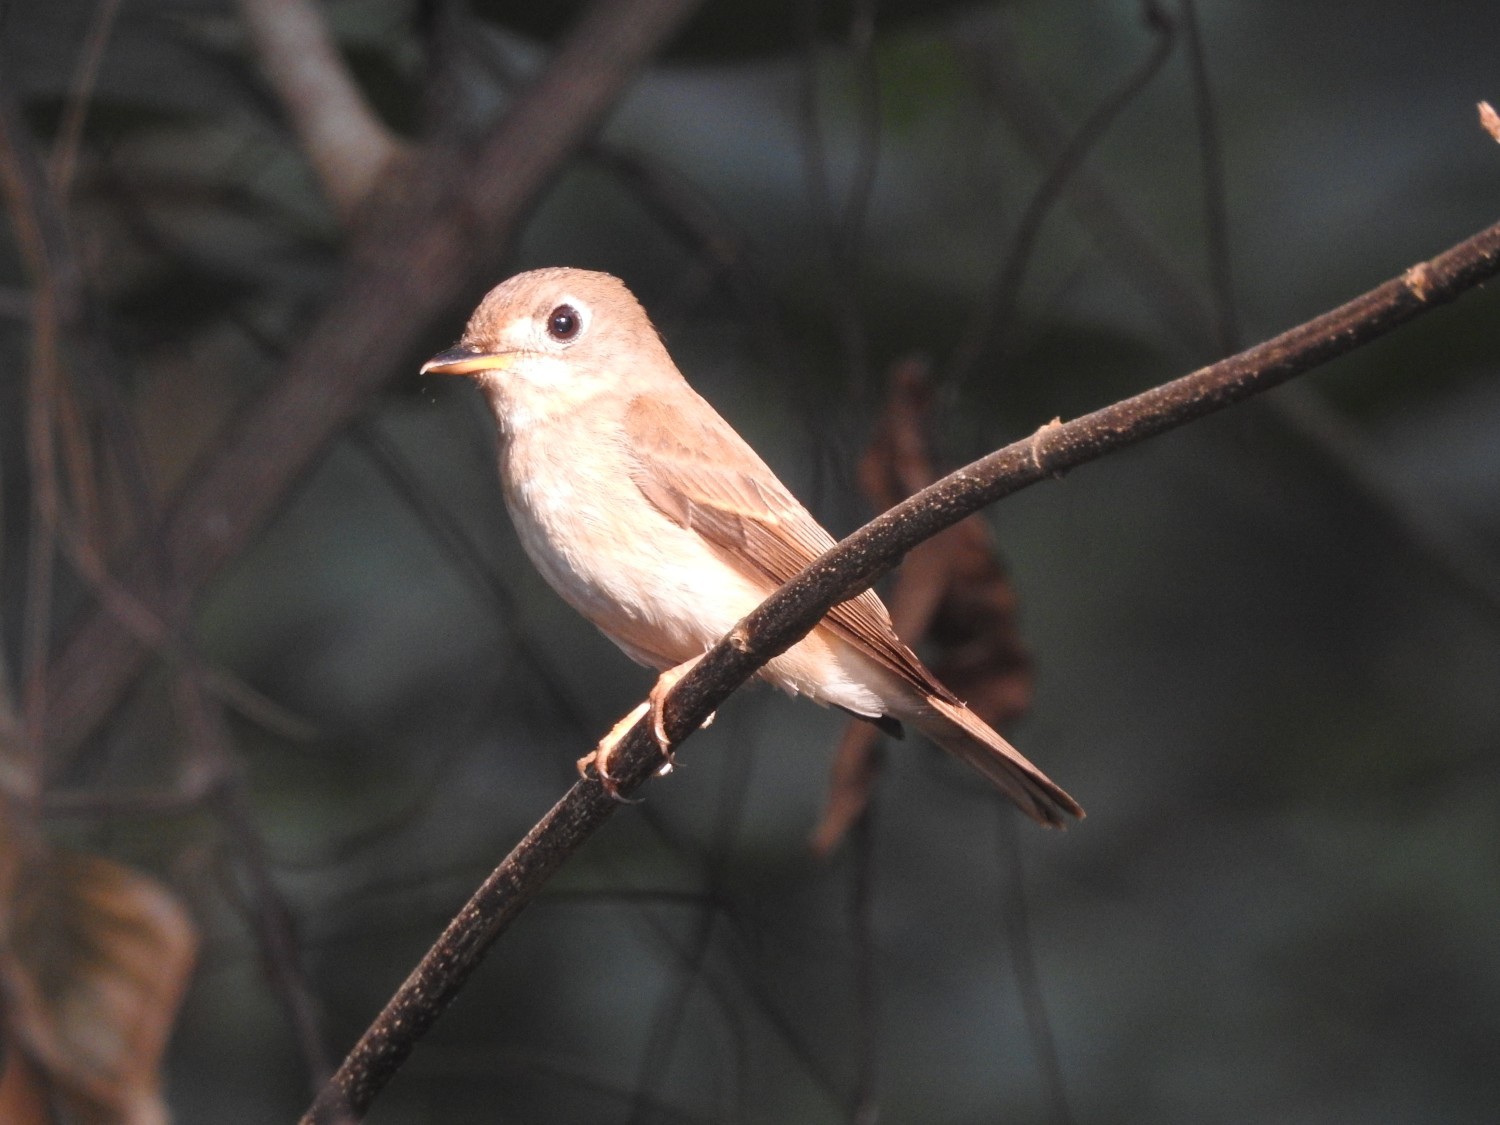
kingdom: Animalia
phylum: Chordata
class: Aves
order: Passeriformes
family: Muscicapidae
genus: Muscicapa
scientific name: Muscicapa muttui
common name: Brown-breasted flycatcher
